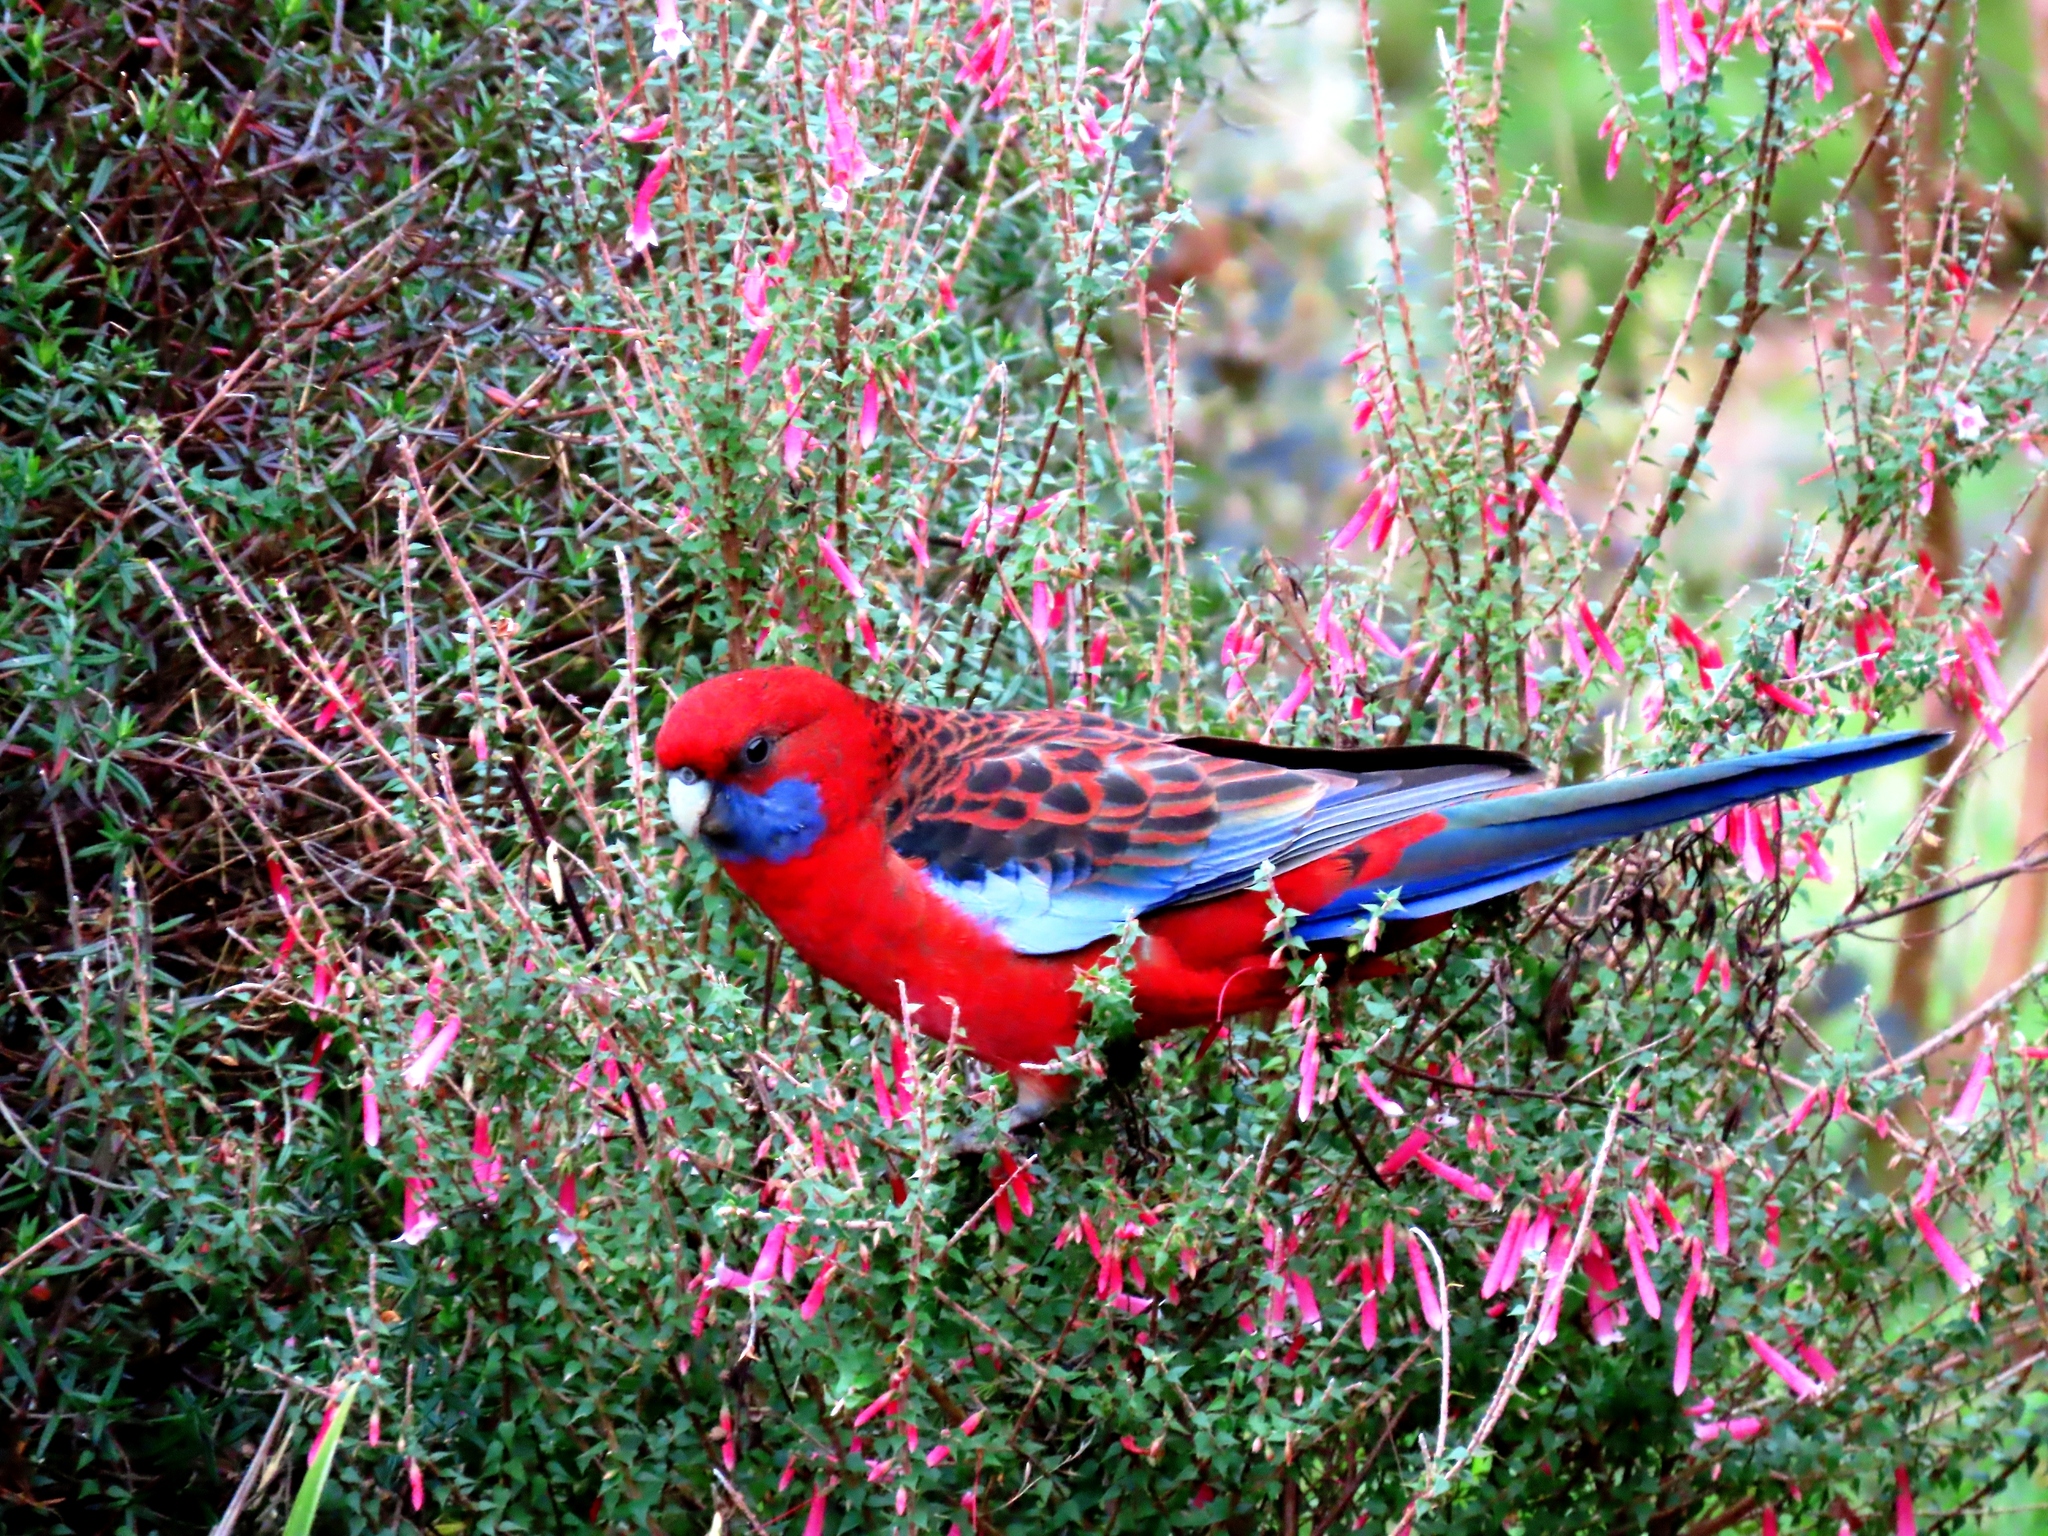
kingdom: Animalia
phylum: Chordata
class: Aves
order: Psittaciformes
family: Psittacidae
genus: Platycercus
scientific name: Platycercus elegans
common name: Crimson rosella
